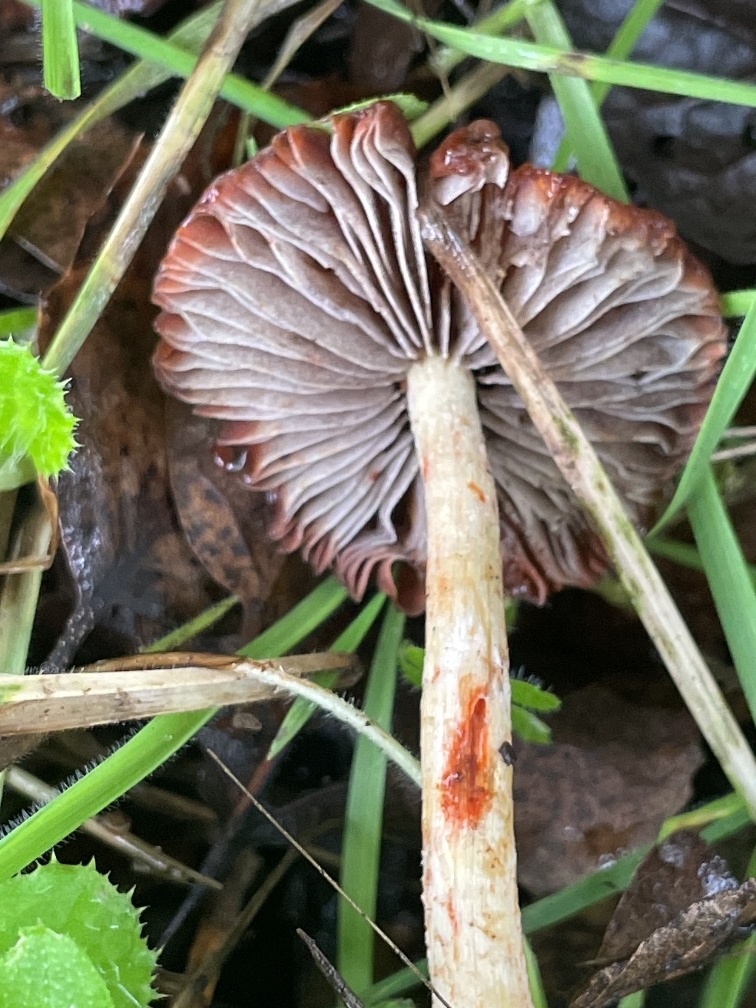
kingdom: Fungi
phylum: Basidiomycota
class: Agaricomycetes
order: Agaricales
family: Strophariaceae
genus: Leratiomyces
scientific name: Leratiomyces ceres
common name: Redlead roundhead
